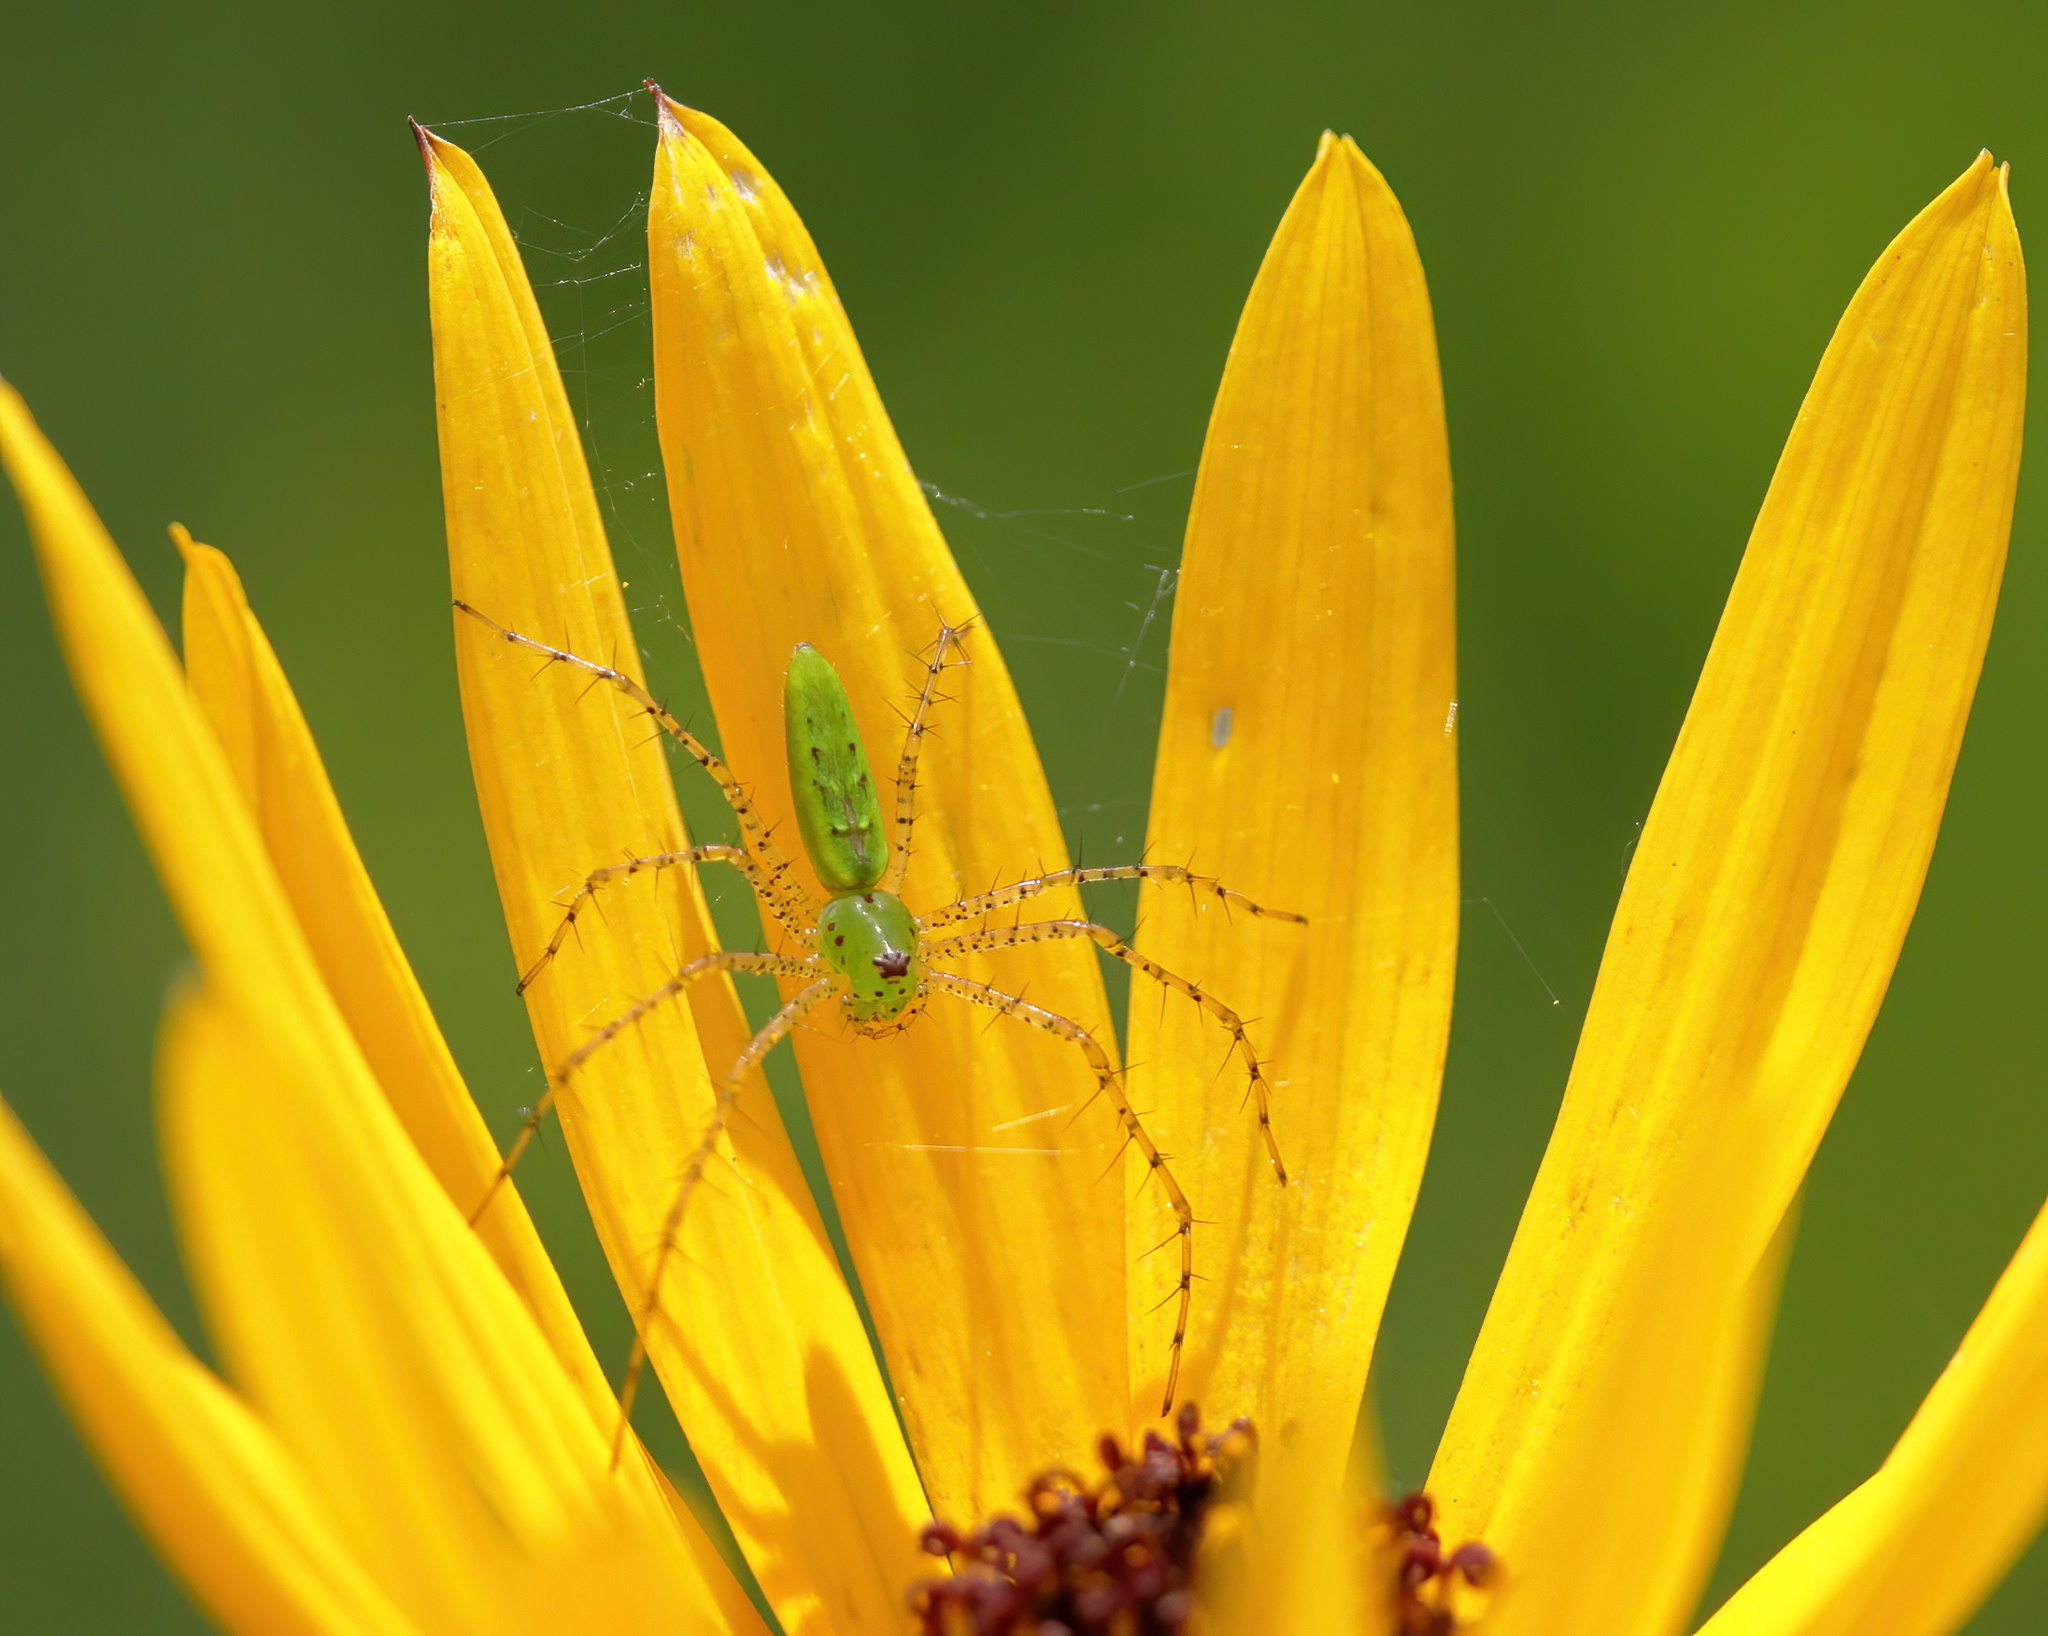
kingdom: Animalia
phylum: Arthropoda
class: Arachnida
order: Araneae
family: Oxyopidae
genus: Peucetia
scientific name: Peucetia viridans
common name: Lynx spiders
